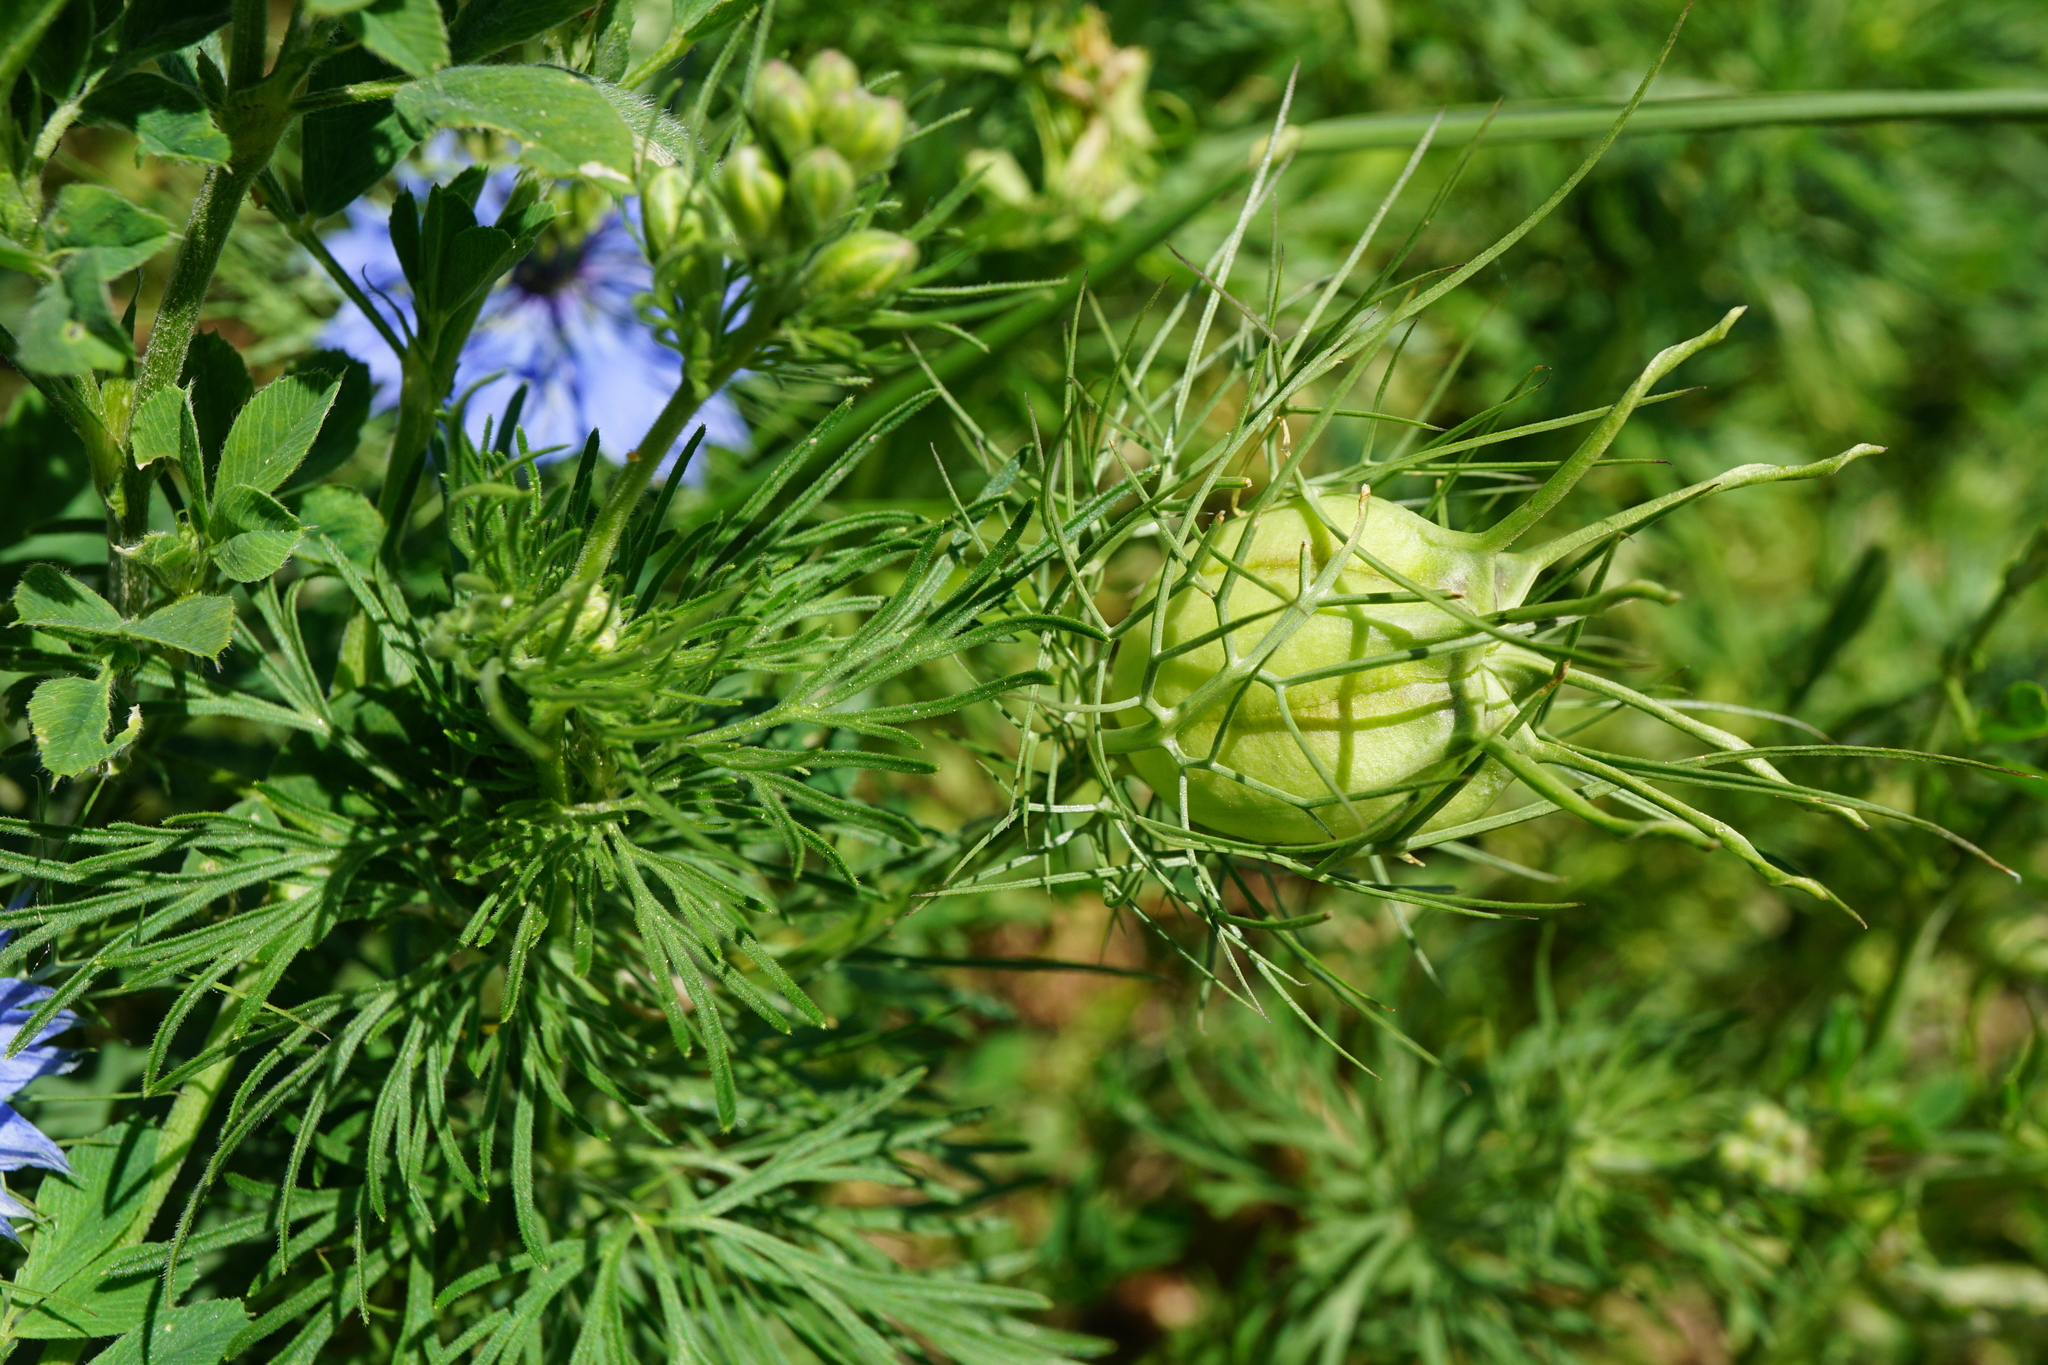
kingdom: Plantae
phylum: Tracheophyta
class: Magnoliopsida
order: Ranunculales
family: Ranunculaceae
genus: Nigella
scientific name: Nigella damascena
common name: Love-in-a-mist
